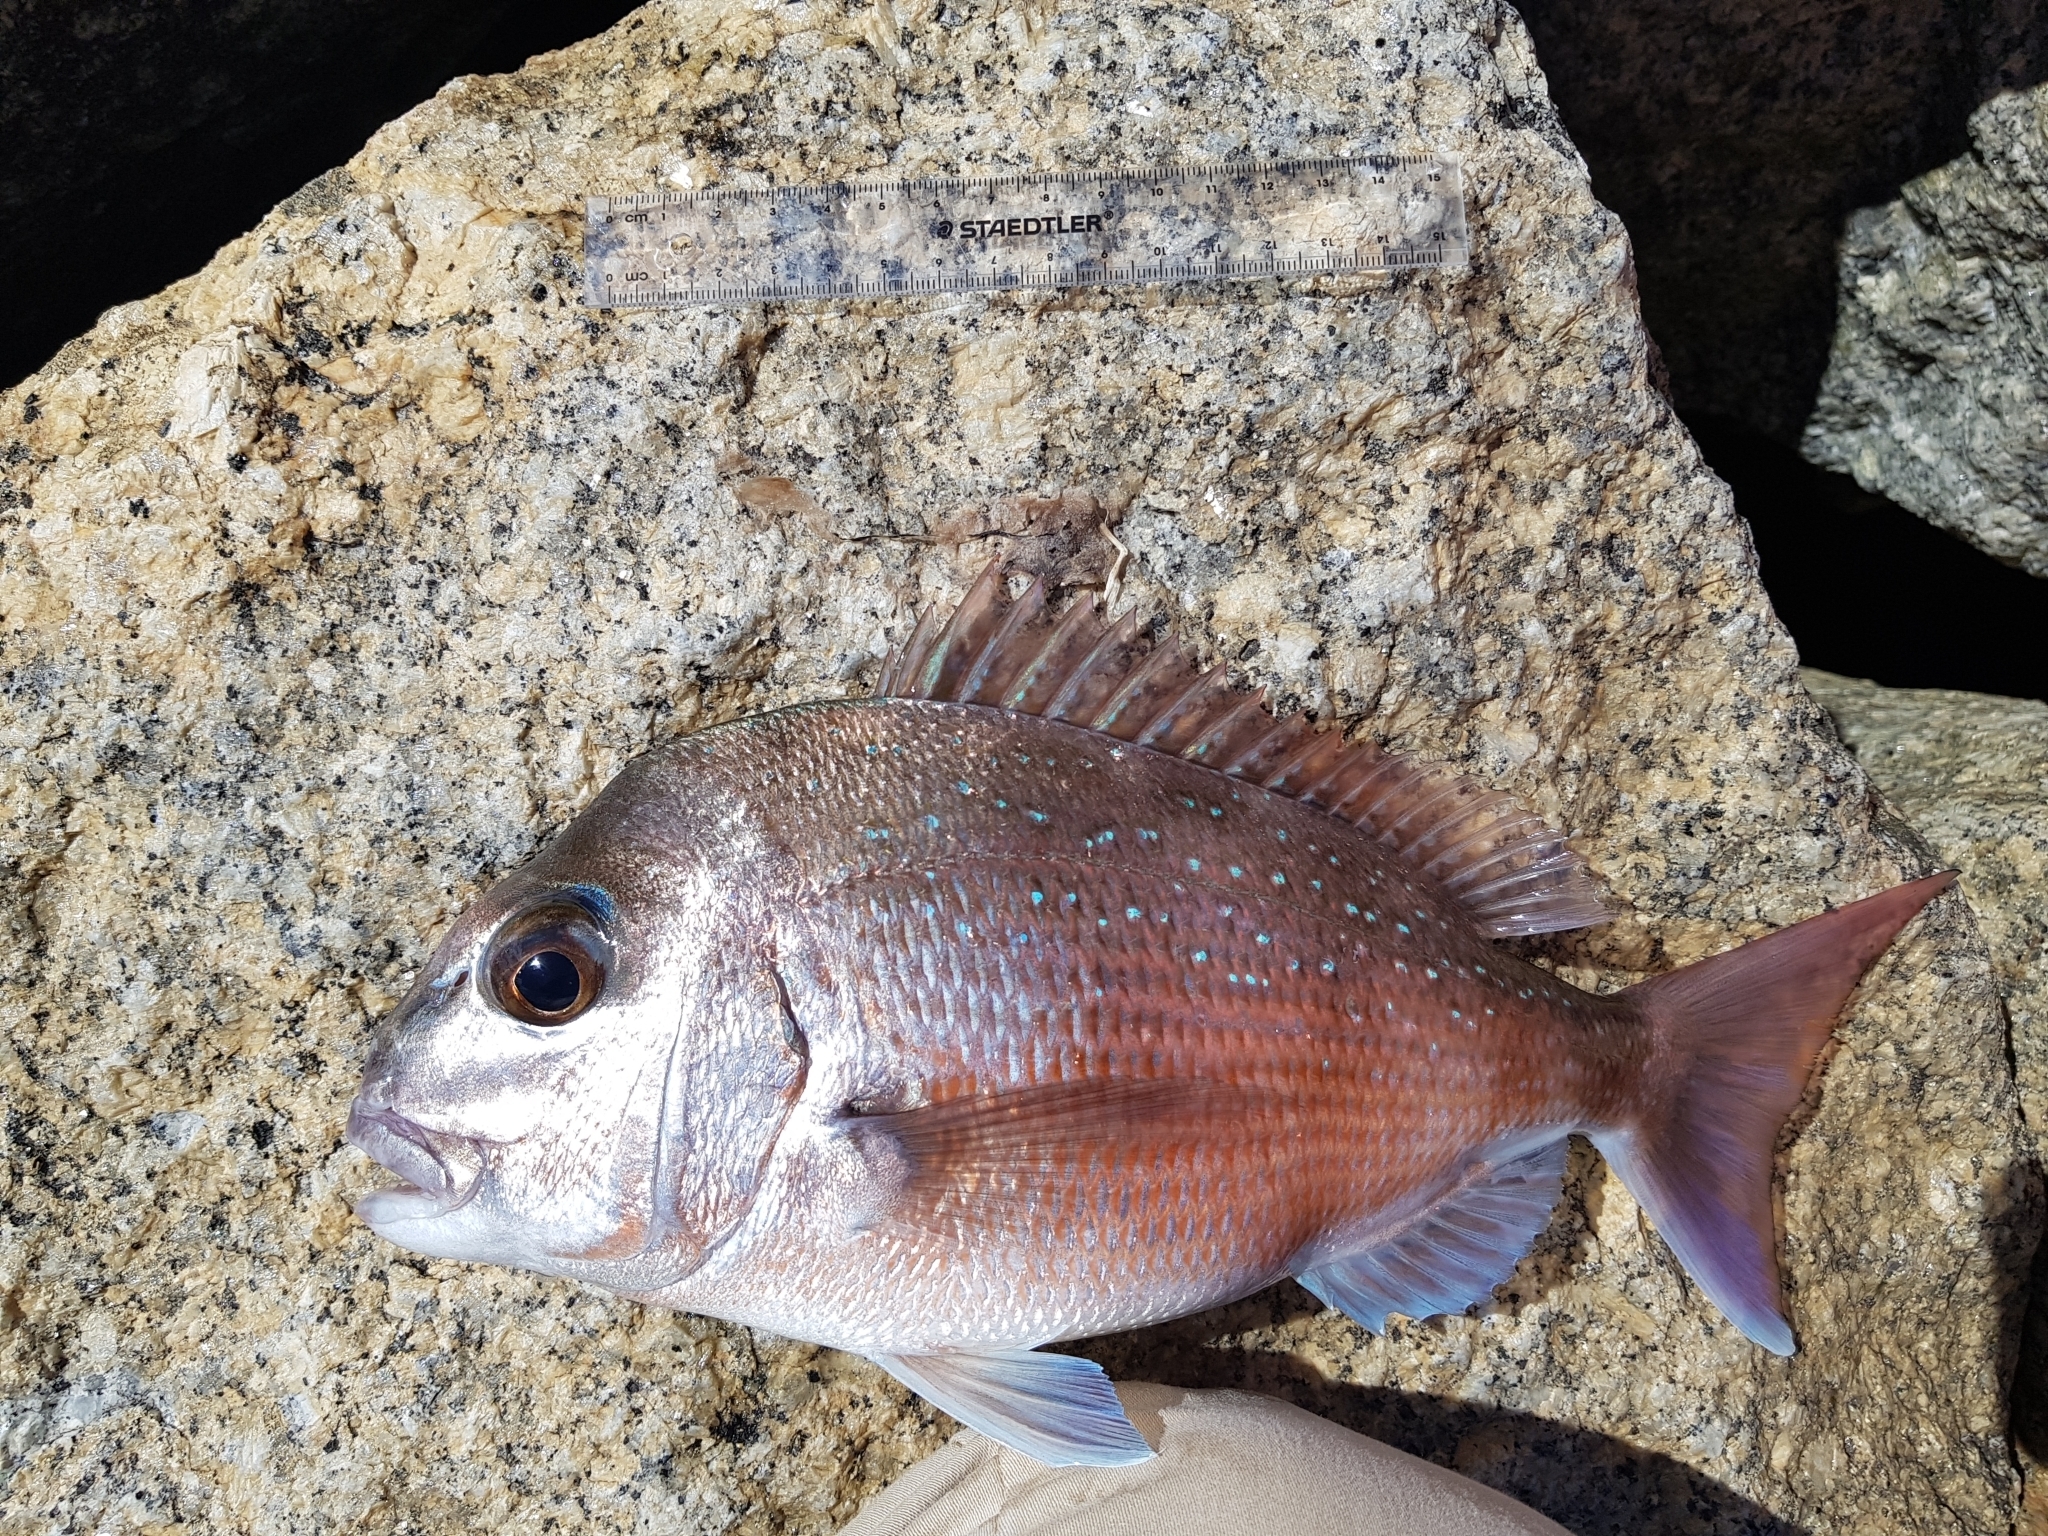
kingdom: Animalia
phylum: Chordata
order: Perciformes
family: Sparidae
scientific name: Sparidae
